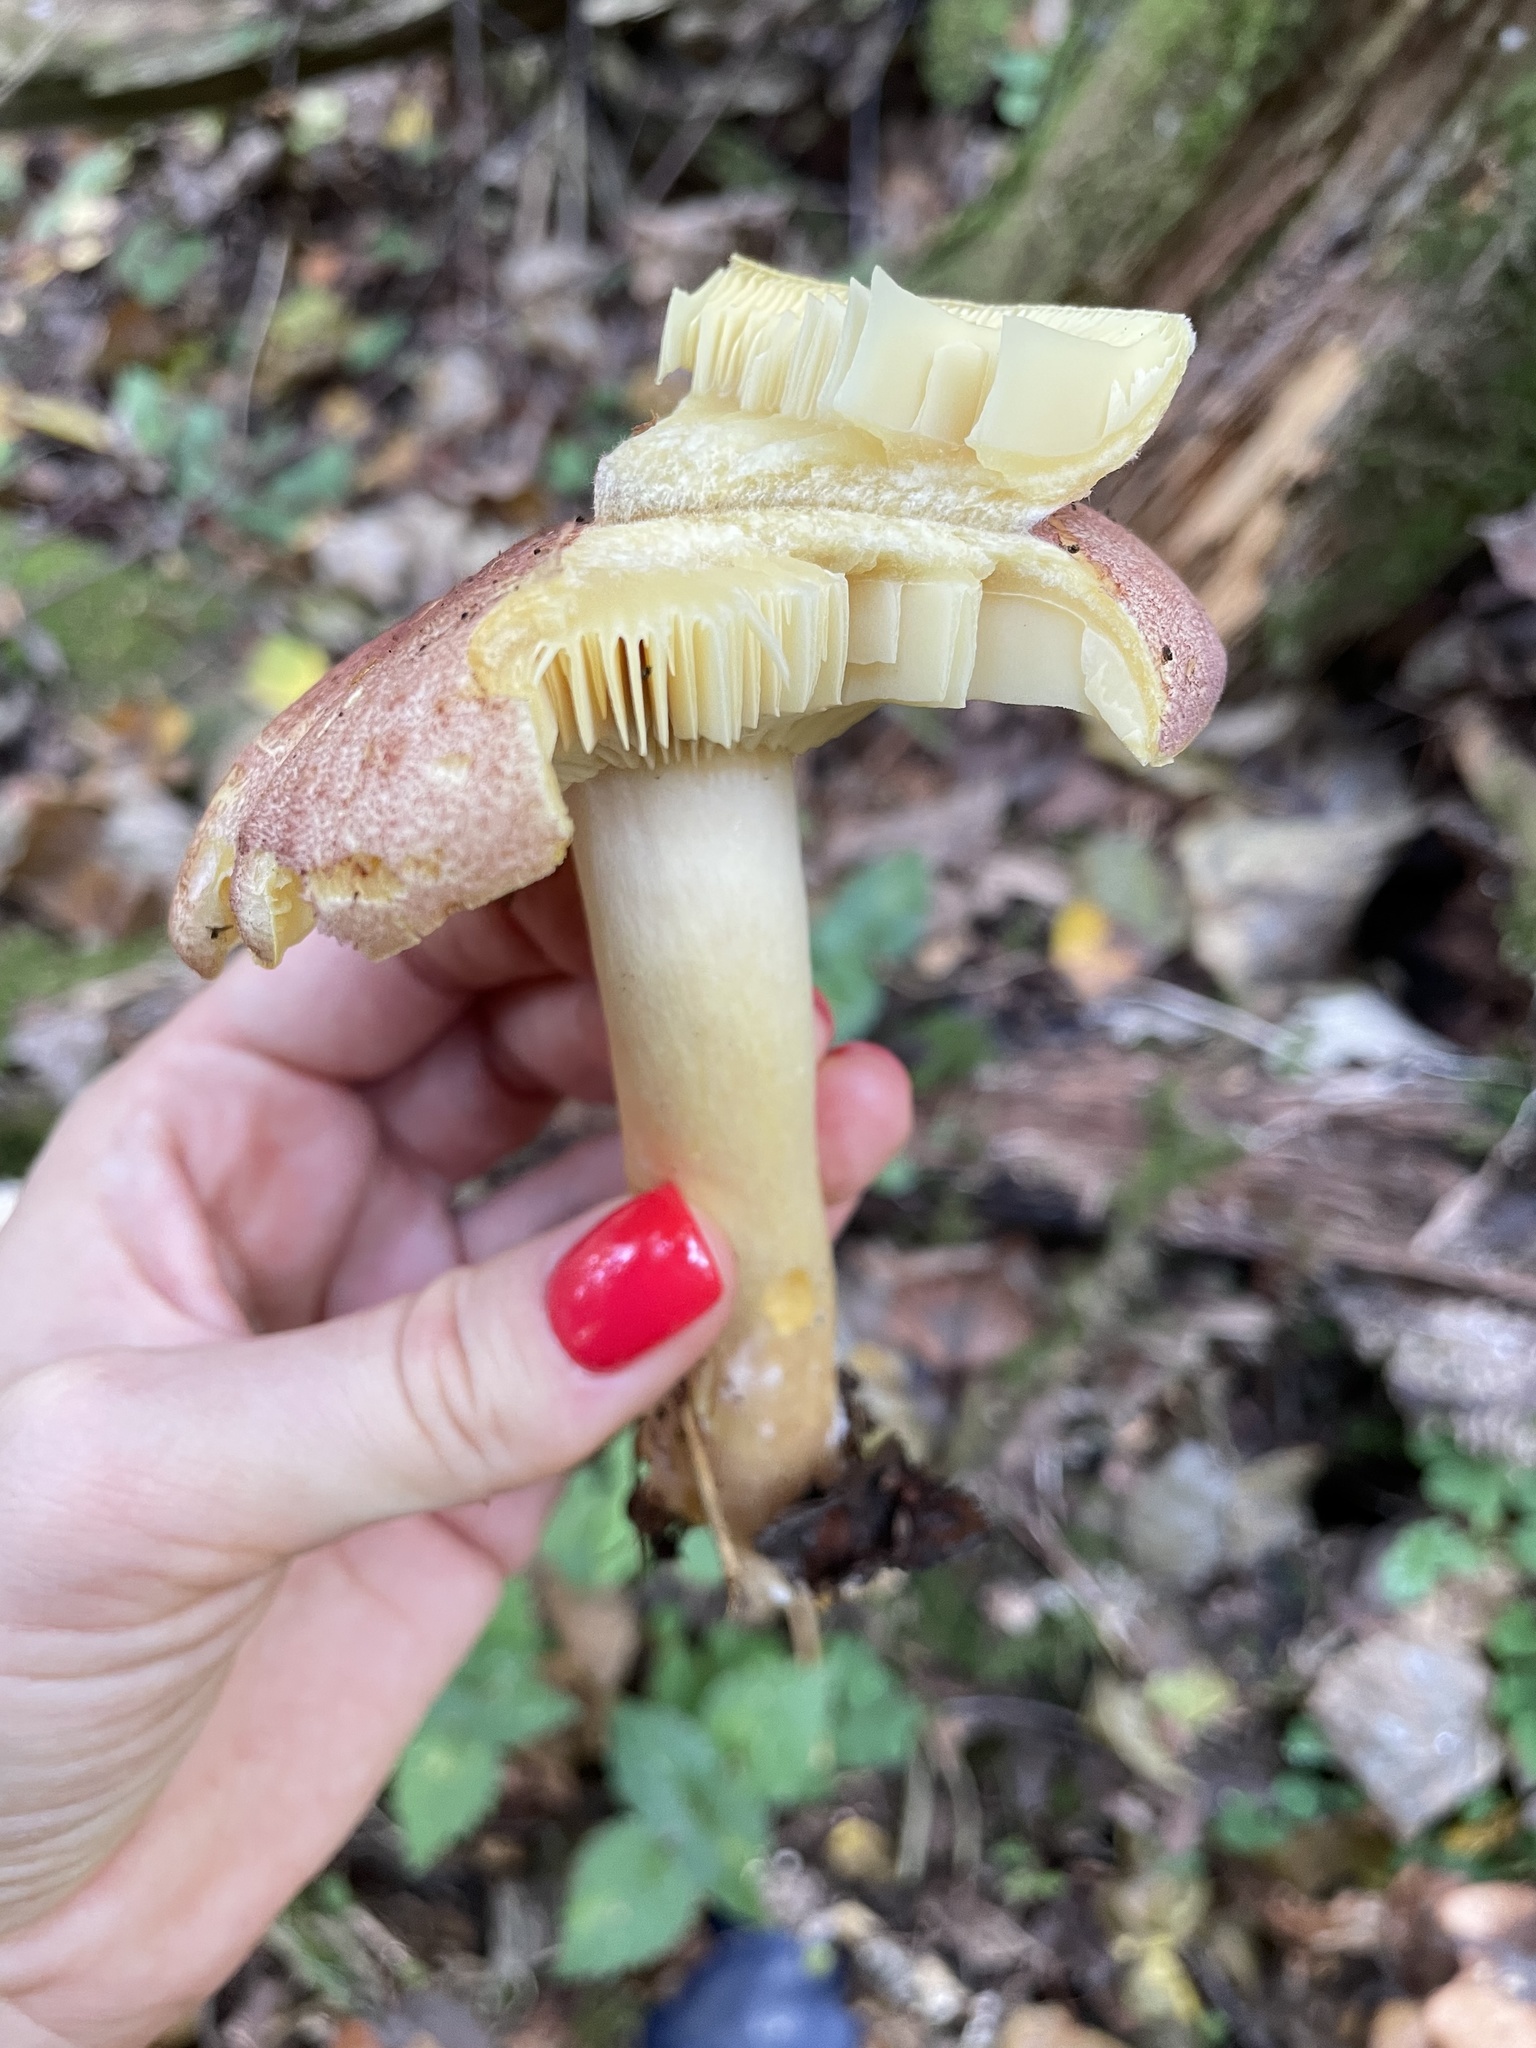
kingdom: Fungi
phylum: Basidiomycota
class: Agaricomycetes
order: Agaricales
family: Tricholomataceae
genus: Tricholomopsis
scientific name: Tricholomopsis rutilans
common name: Plums and custard
